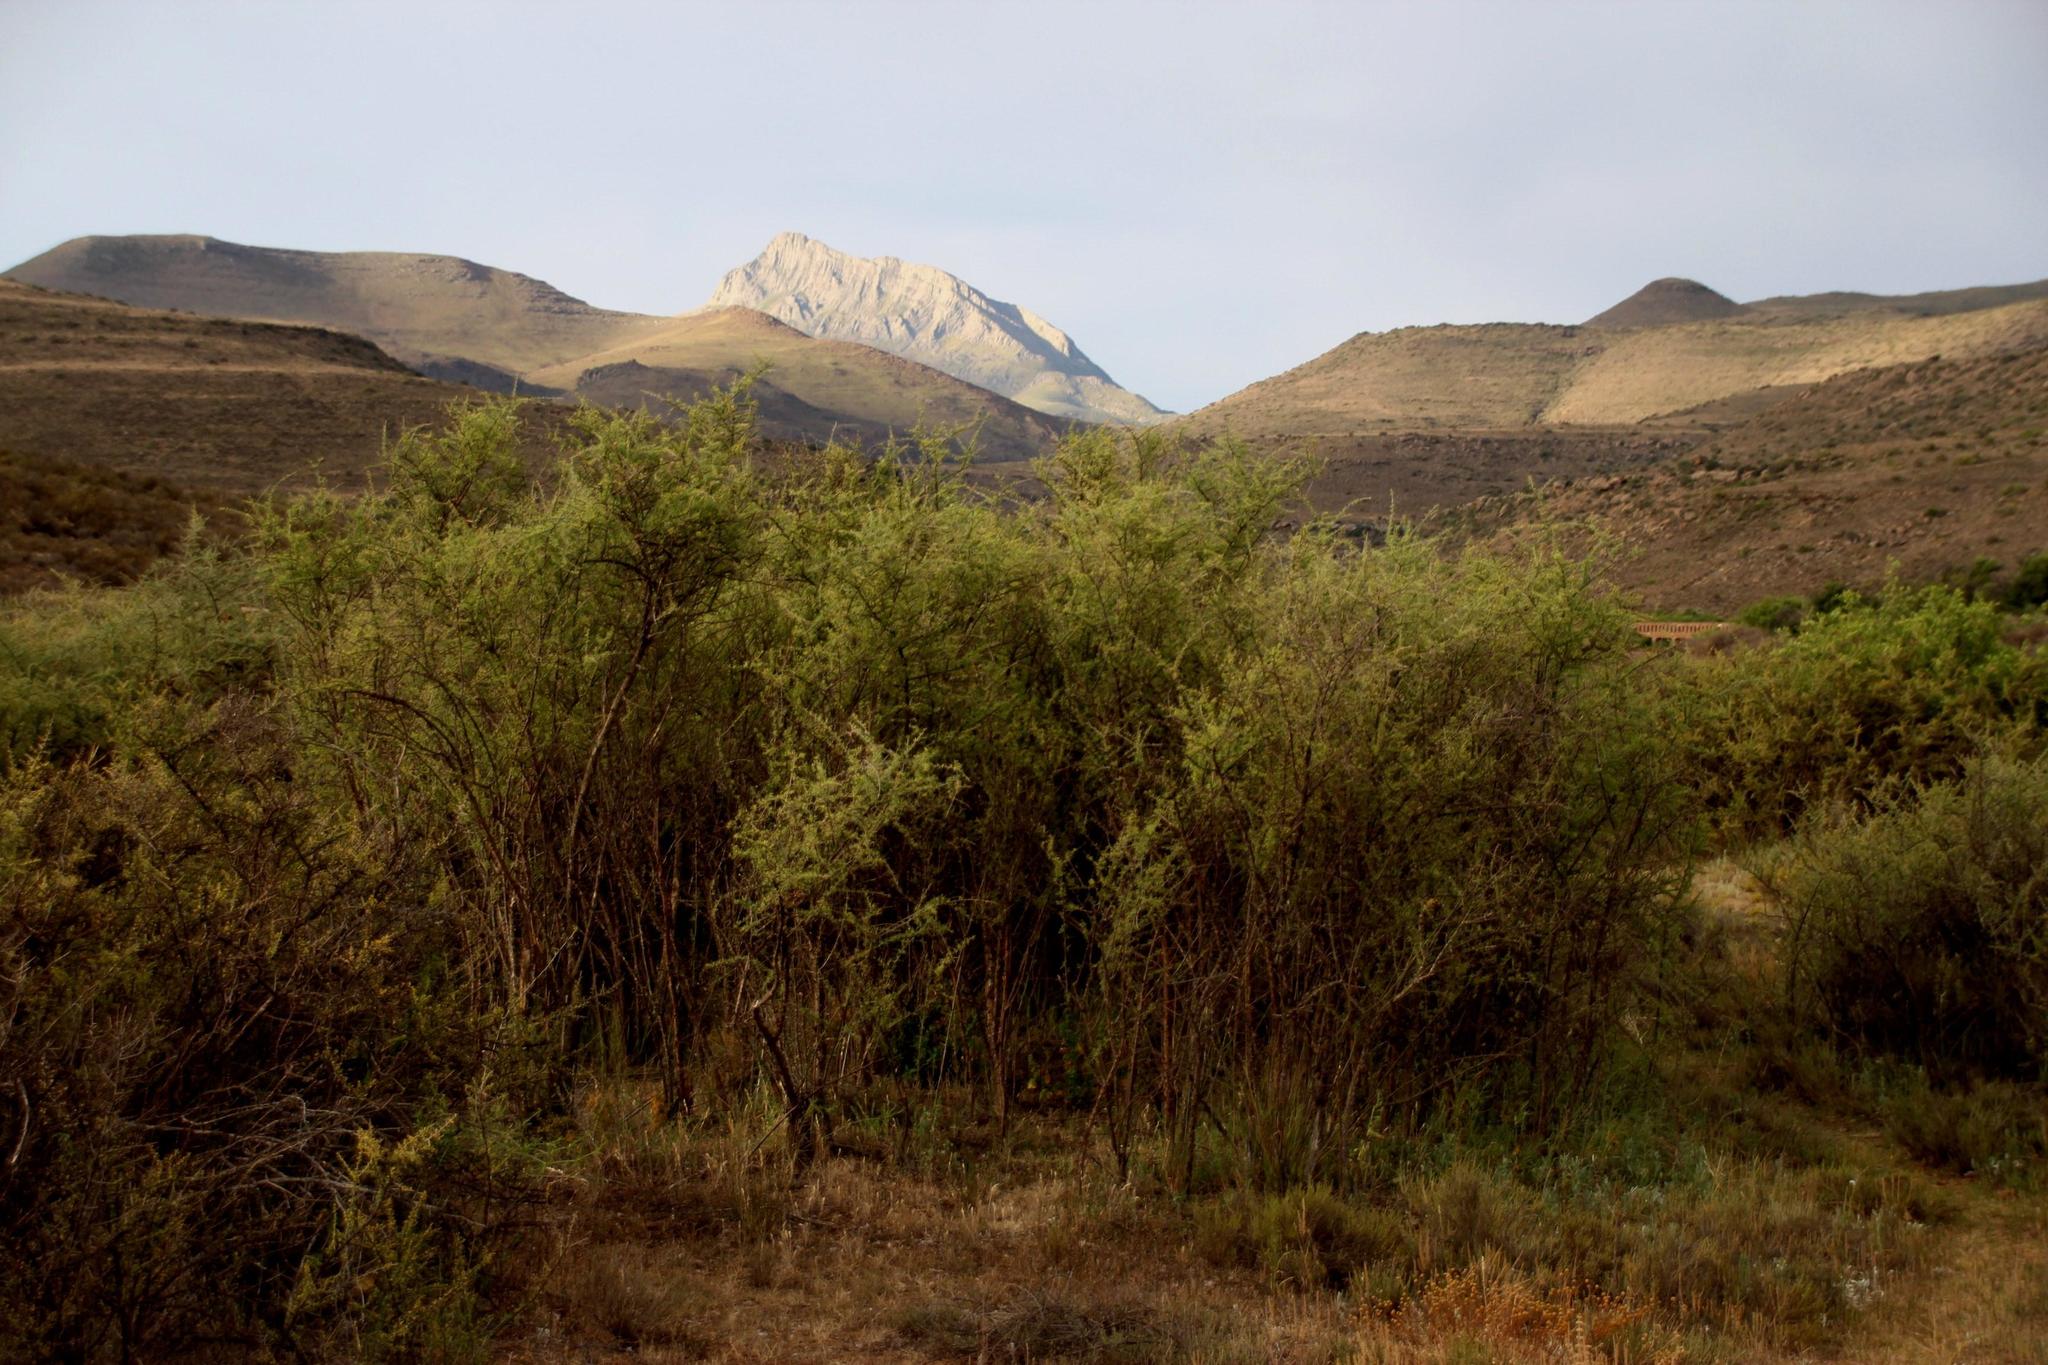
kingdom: Plantae
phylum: Tracheophyta
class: Magnoliopsida
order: Solanales
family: Solanaceae
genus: Lycium
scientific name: Lycium horridum
